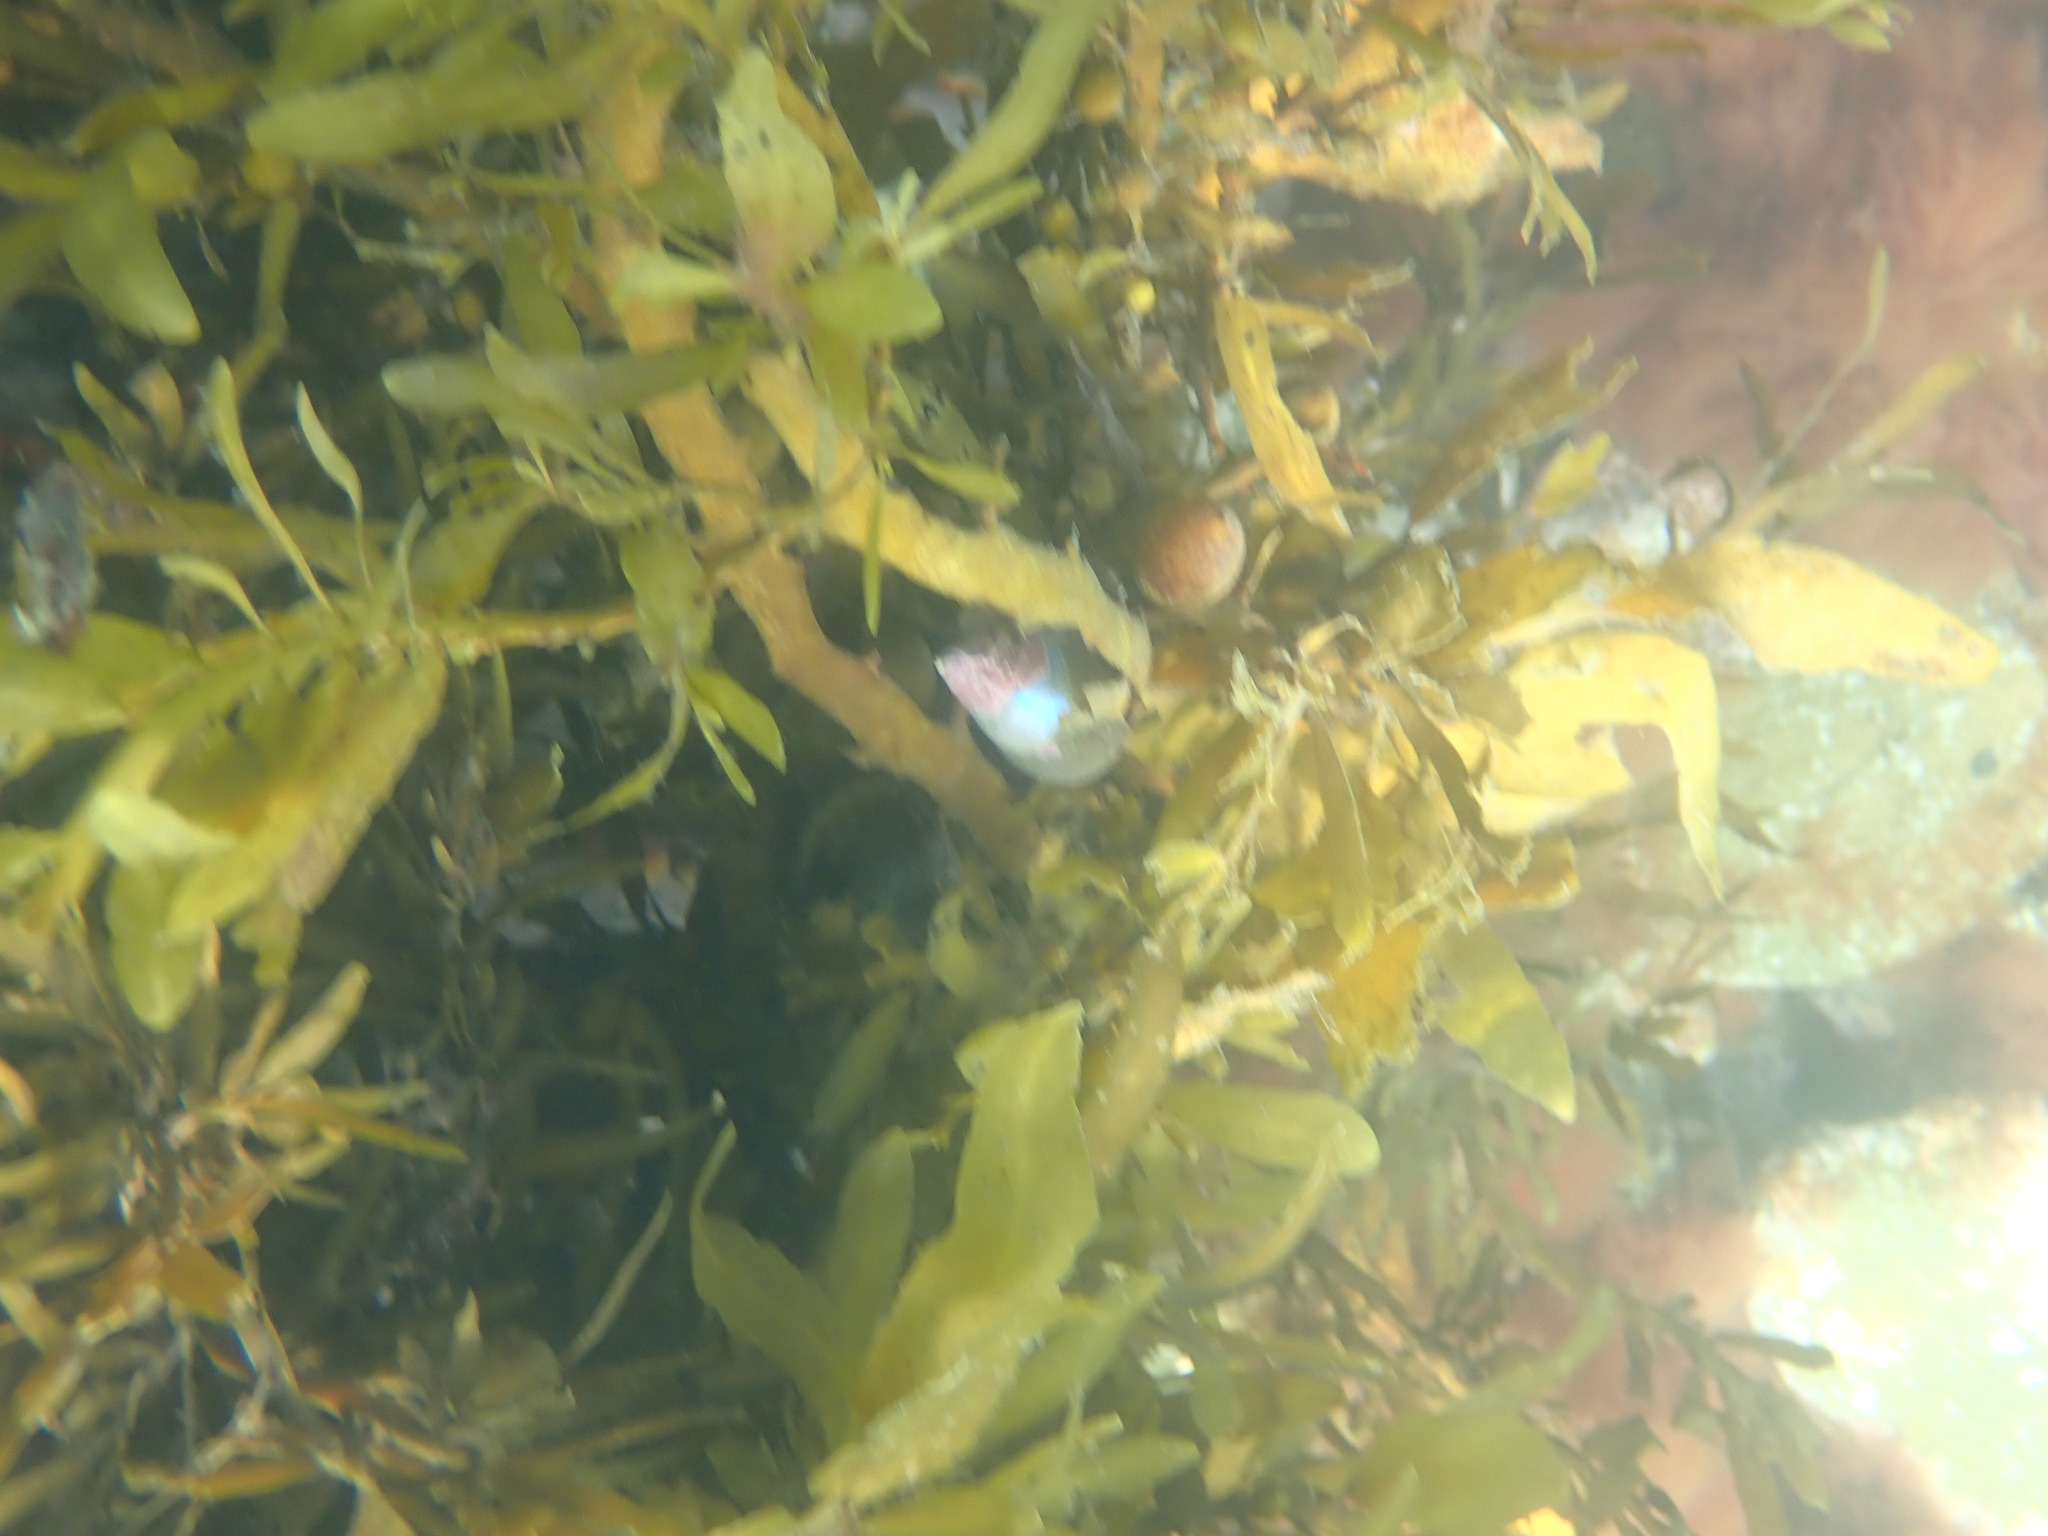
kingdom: Animalia
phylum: Mollusca
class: Gastropoda
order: Trochida
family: Trochidae
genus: Cantharidus
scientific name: Cantharidus opalus
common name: Opal jewel topsnail
